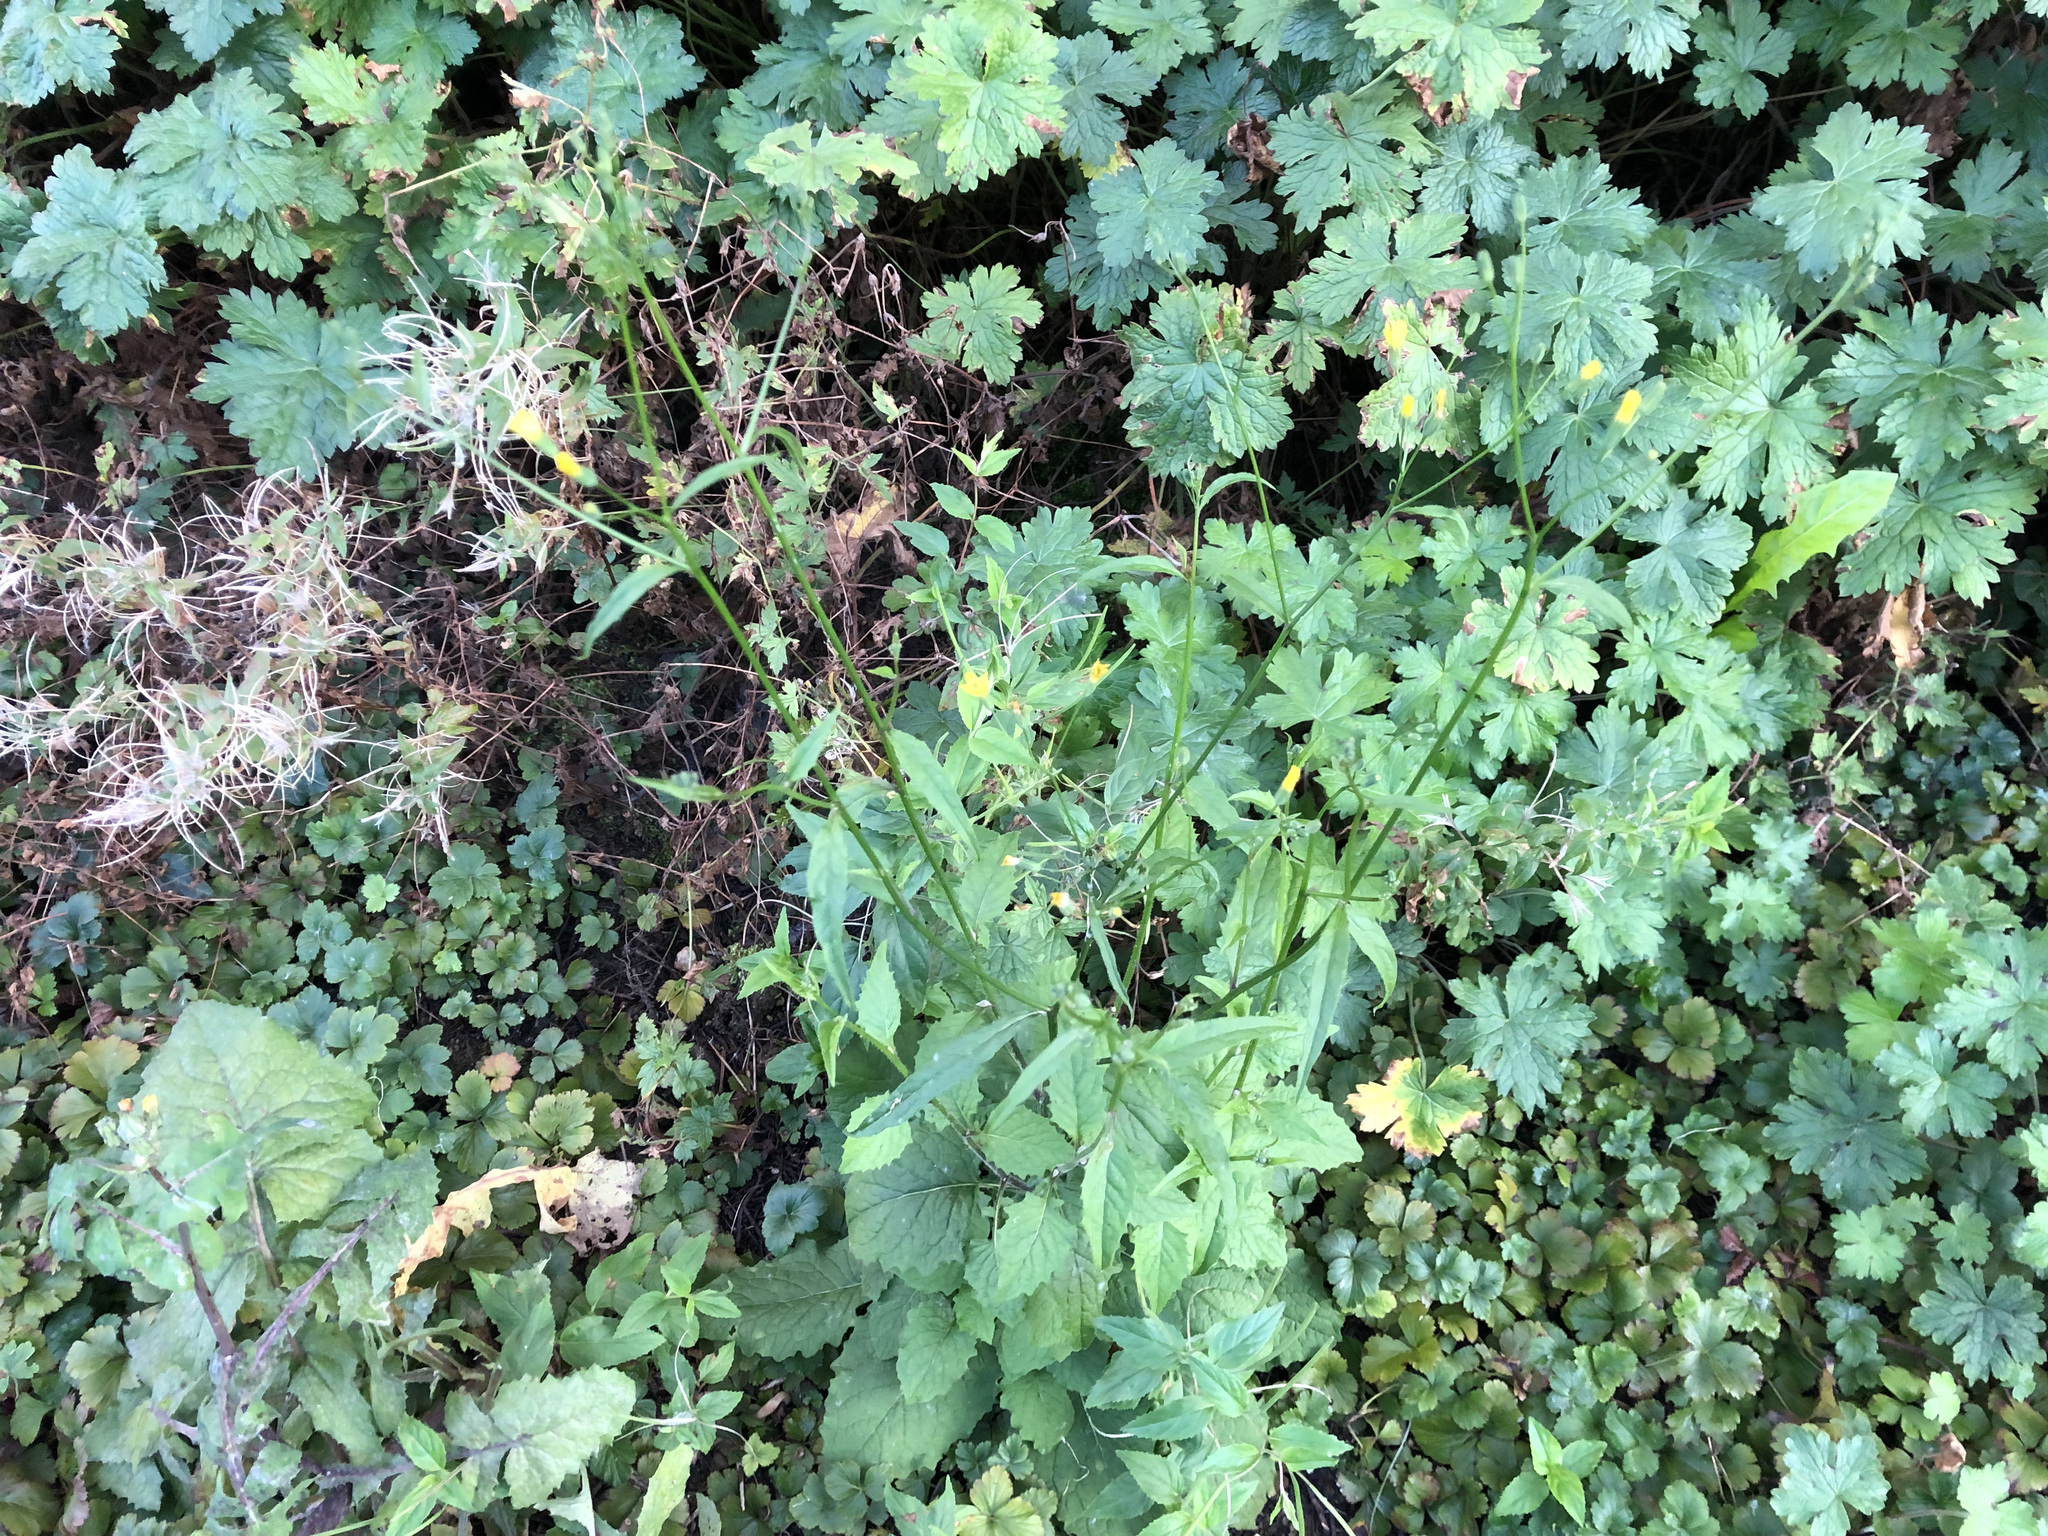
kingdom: Plantae
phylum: Tracheophyta
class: Magnoliopsida
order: Asterales
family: Asteraceae
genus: Lapsana
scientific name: Lapsana communis
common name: Nipplewort
